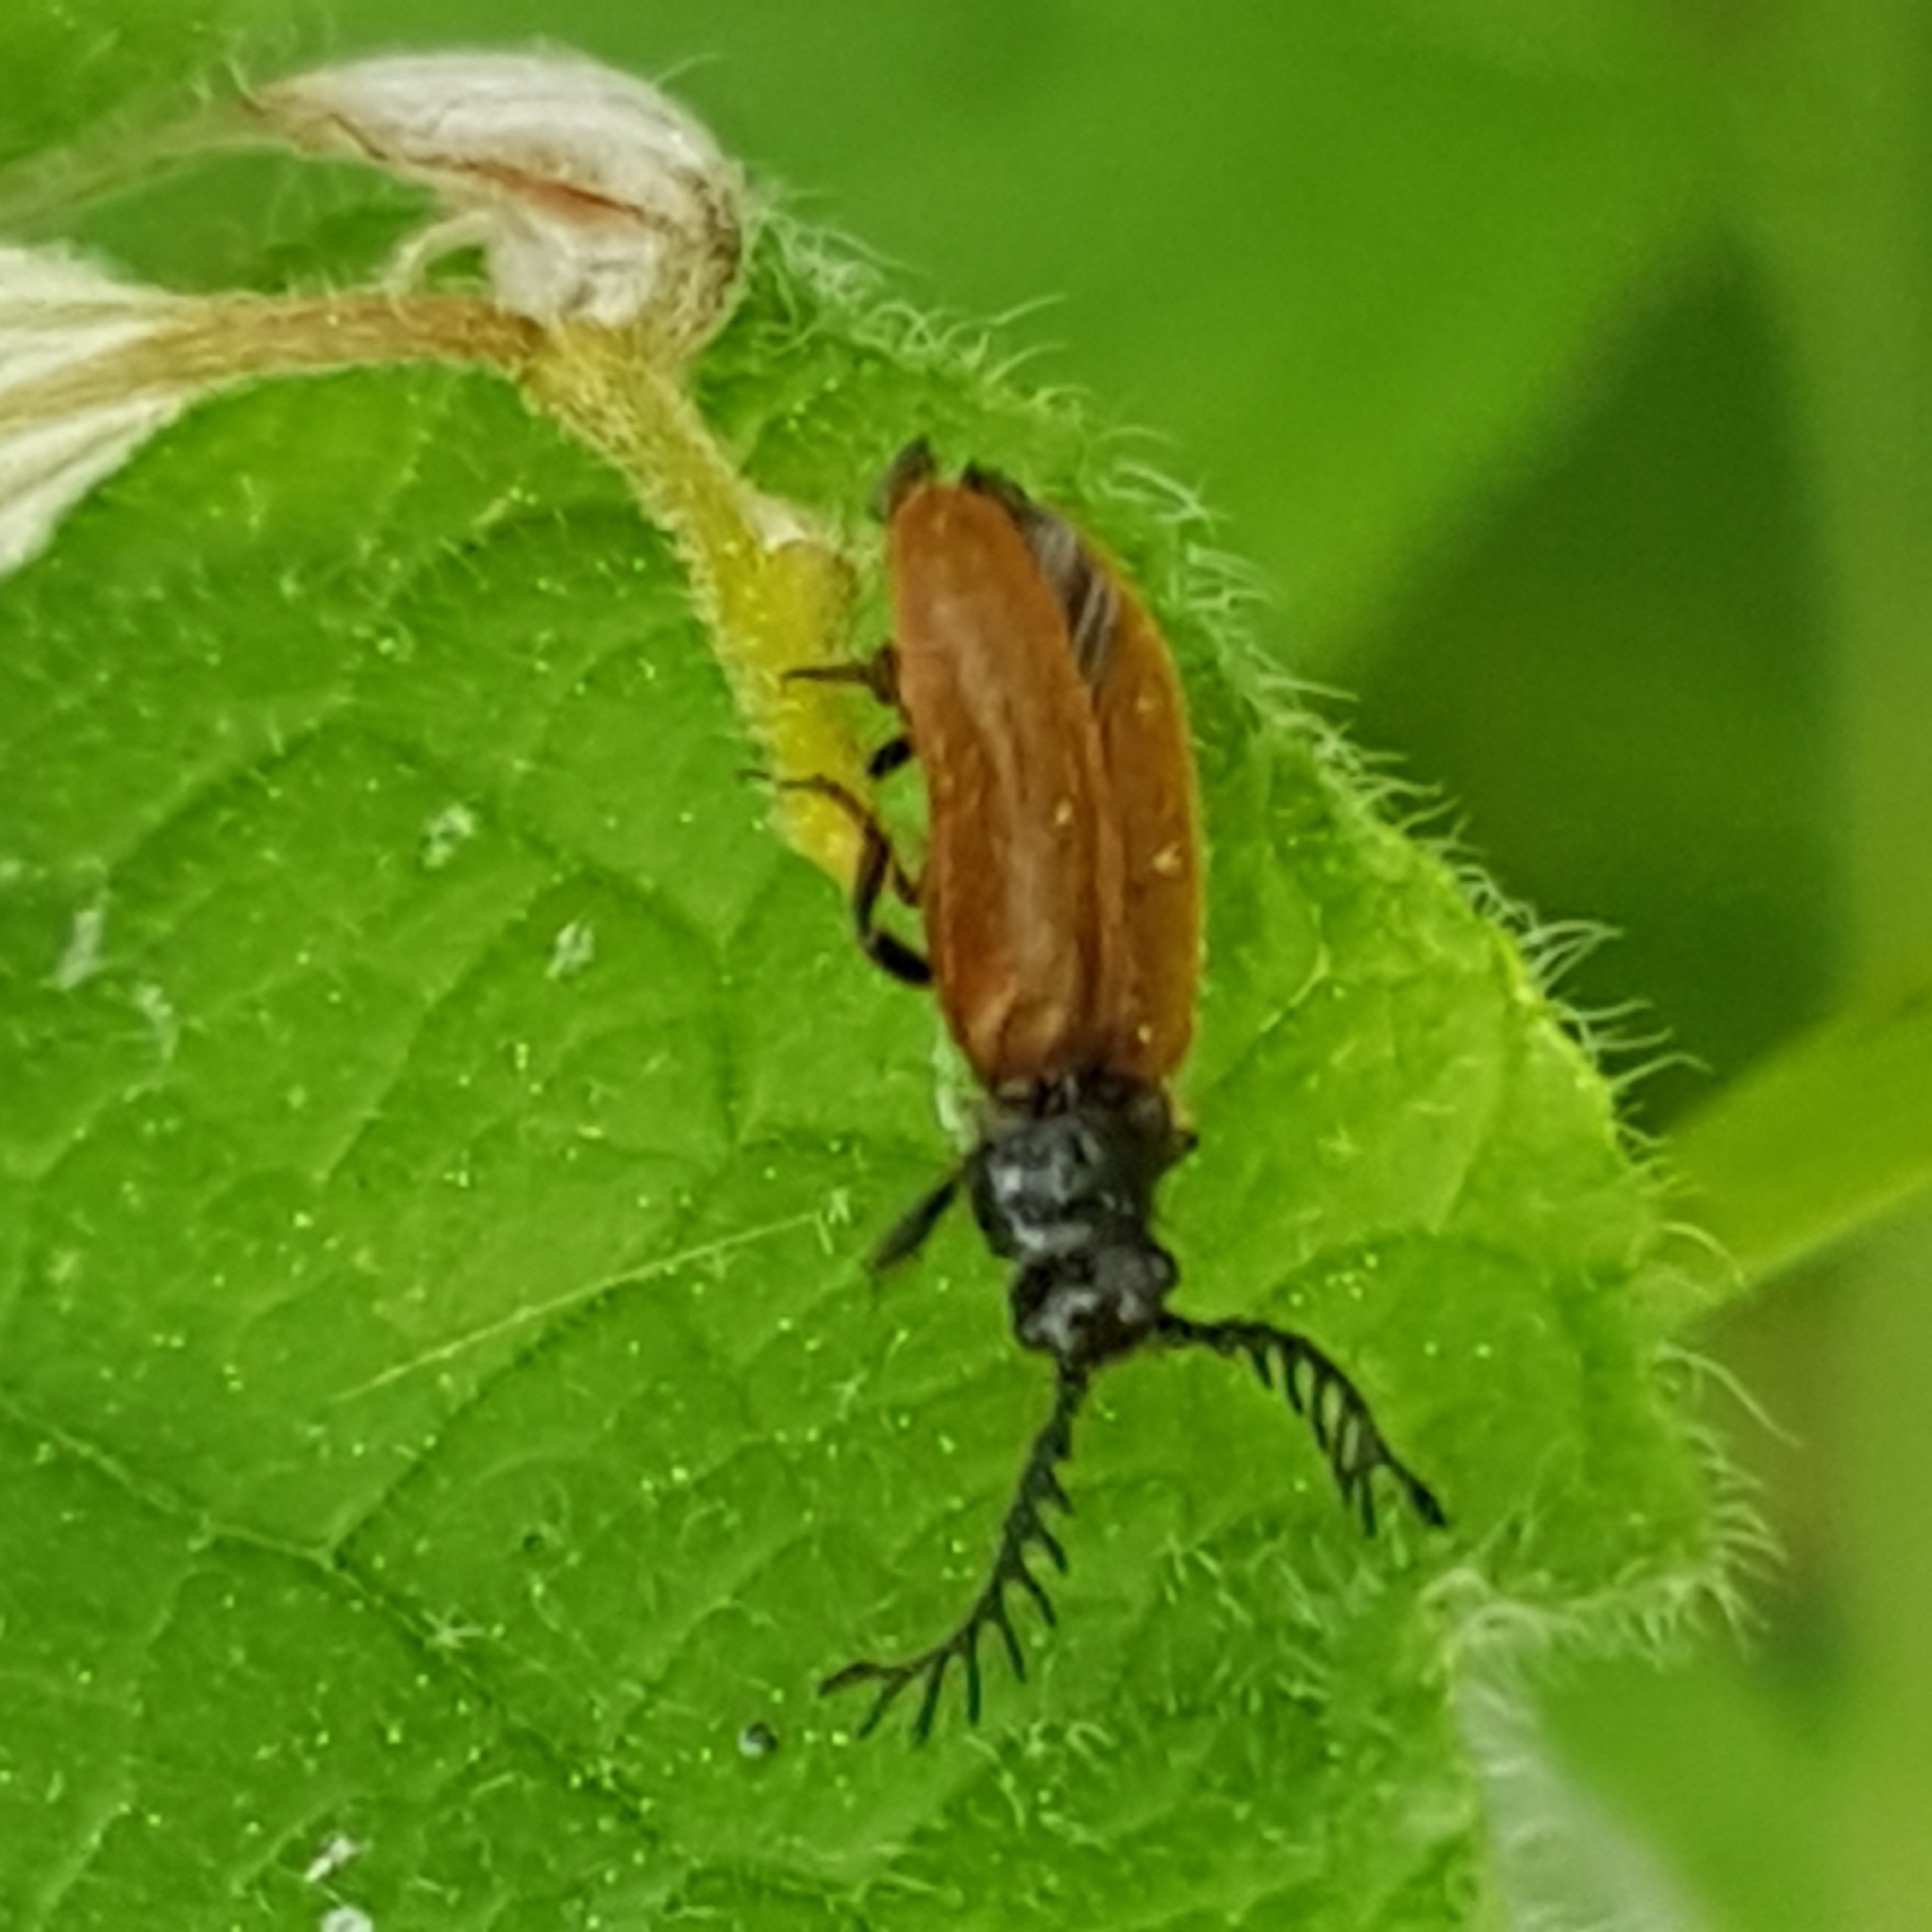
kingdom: Animalia
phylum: Arthropoda
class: Insecta
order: Coleoptera
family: Drilidae
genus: Drilus
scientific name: Drilus flavescens
